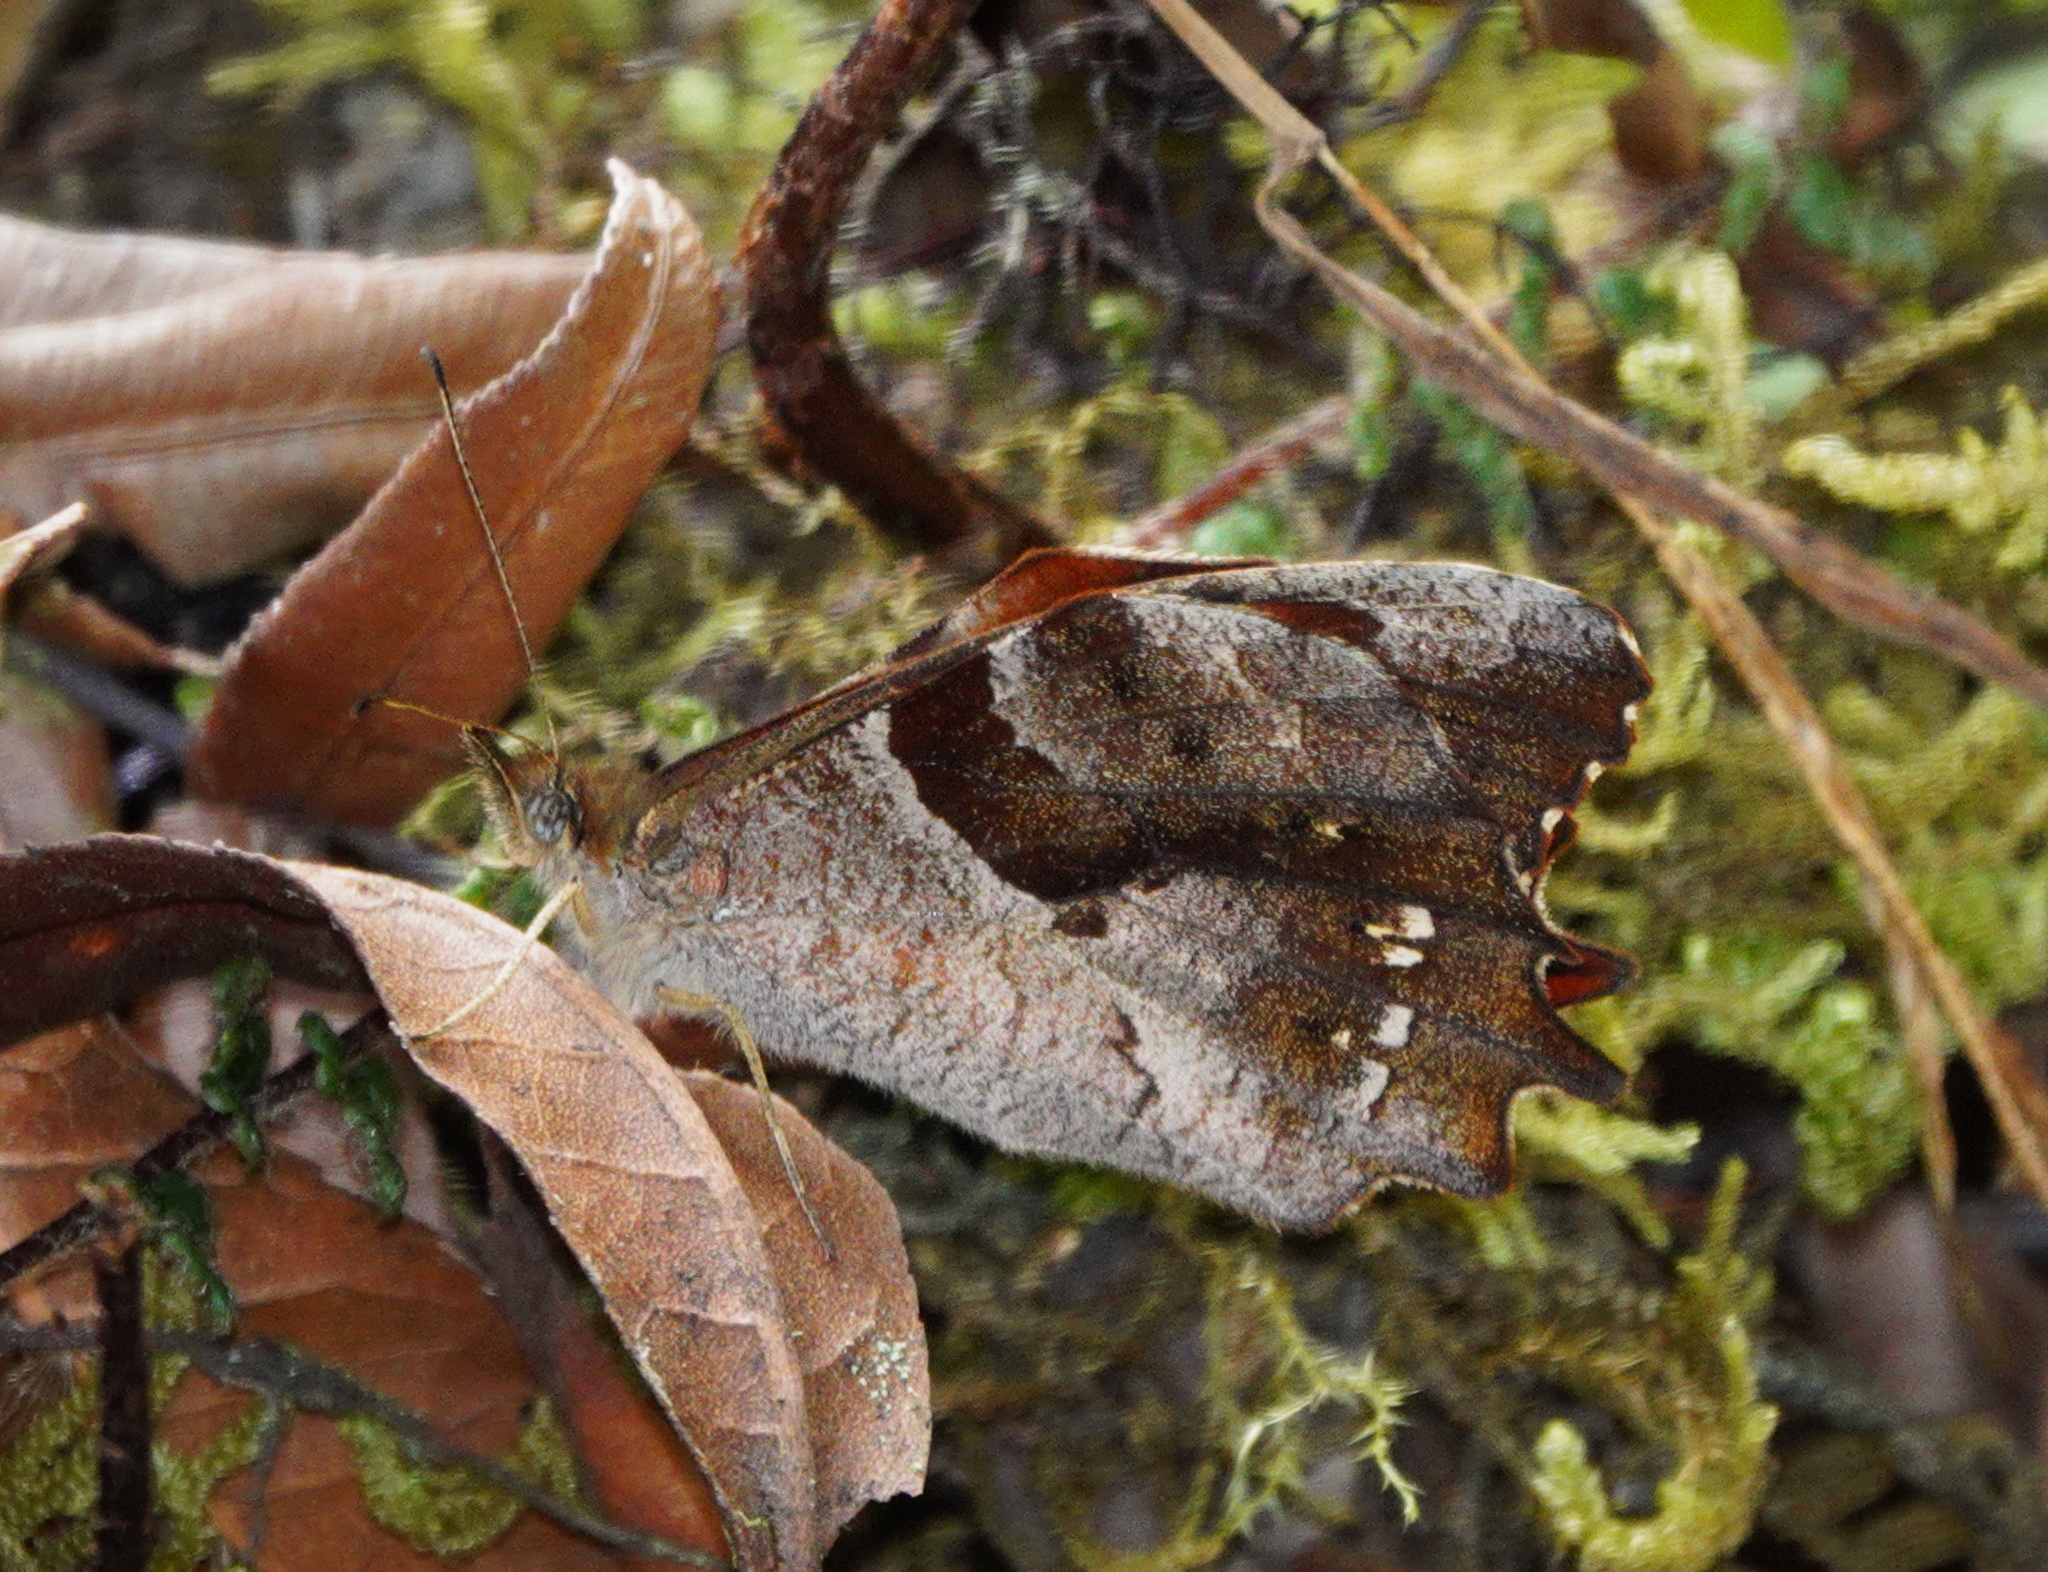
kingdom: Animalia
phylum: Arthropoda
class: Insecta
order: Lepidoptera
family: Nymphalidae
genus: Lasiophila
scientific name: Lasiophila orbifera
